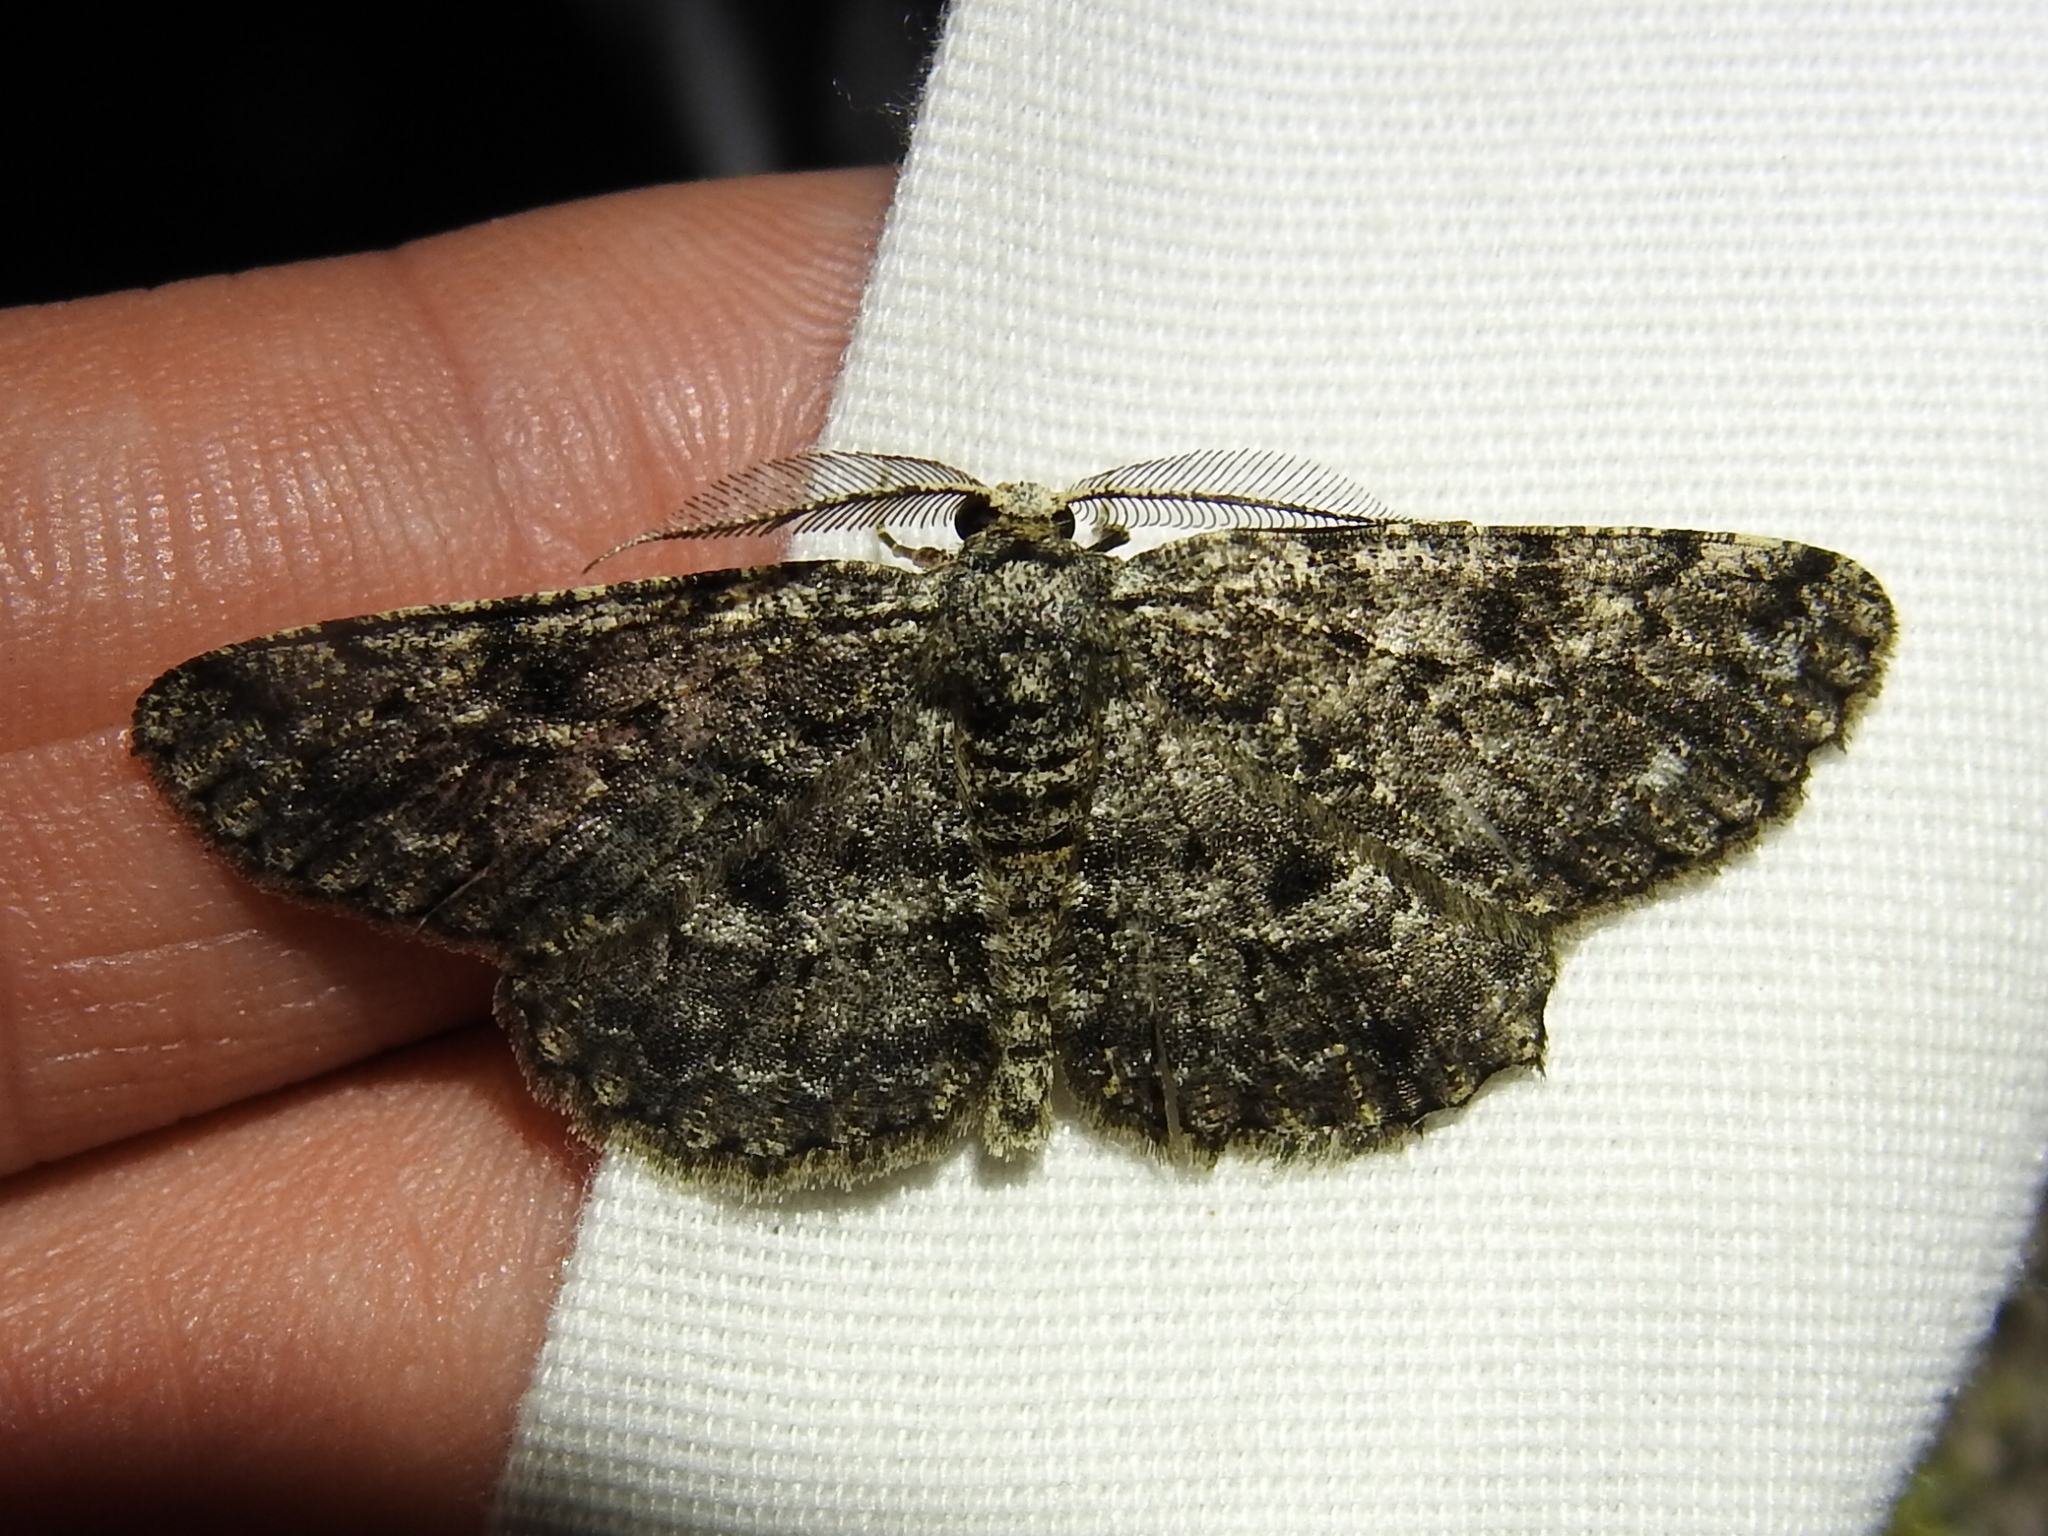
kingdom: Animalia
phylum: Arthropoda
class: Insecta
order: Lepidoptera
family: Geometridae
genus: Hypomecis
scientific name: Hypomecis umbrosaria
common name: Umber moth
